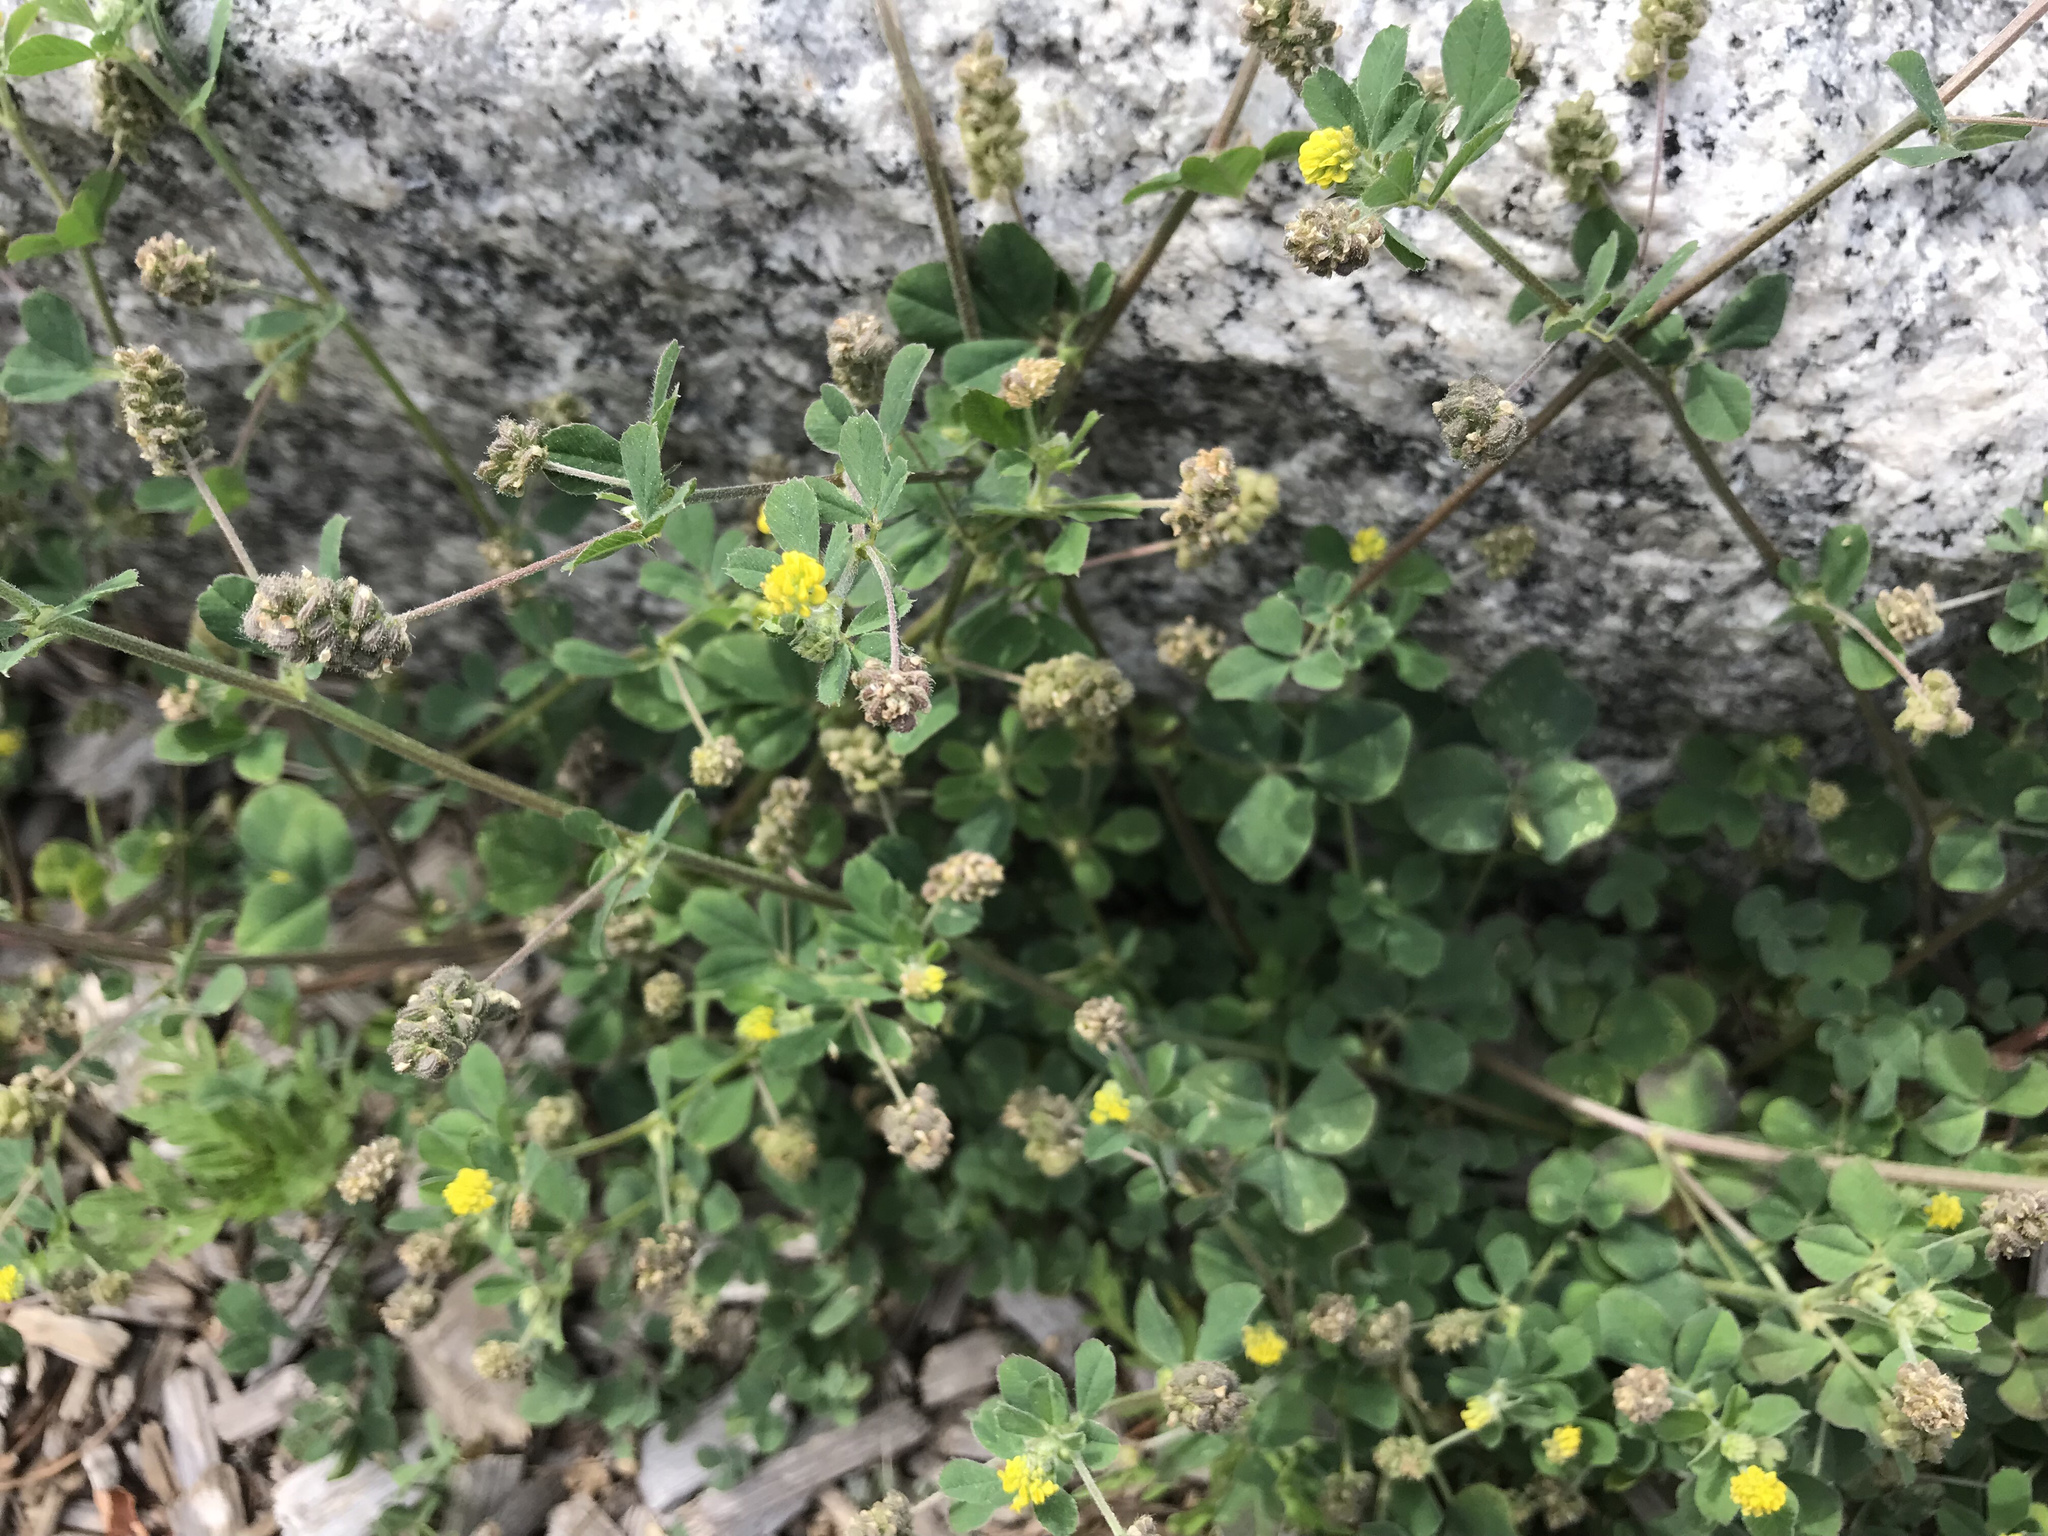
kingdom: Plantae
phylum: Tracheophyta
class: Magnoliopsida
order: Fabales
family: Fabaceae
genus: Medicago
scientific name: Medicago lupulina
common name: Black medick
